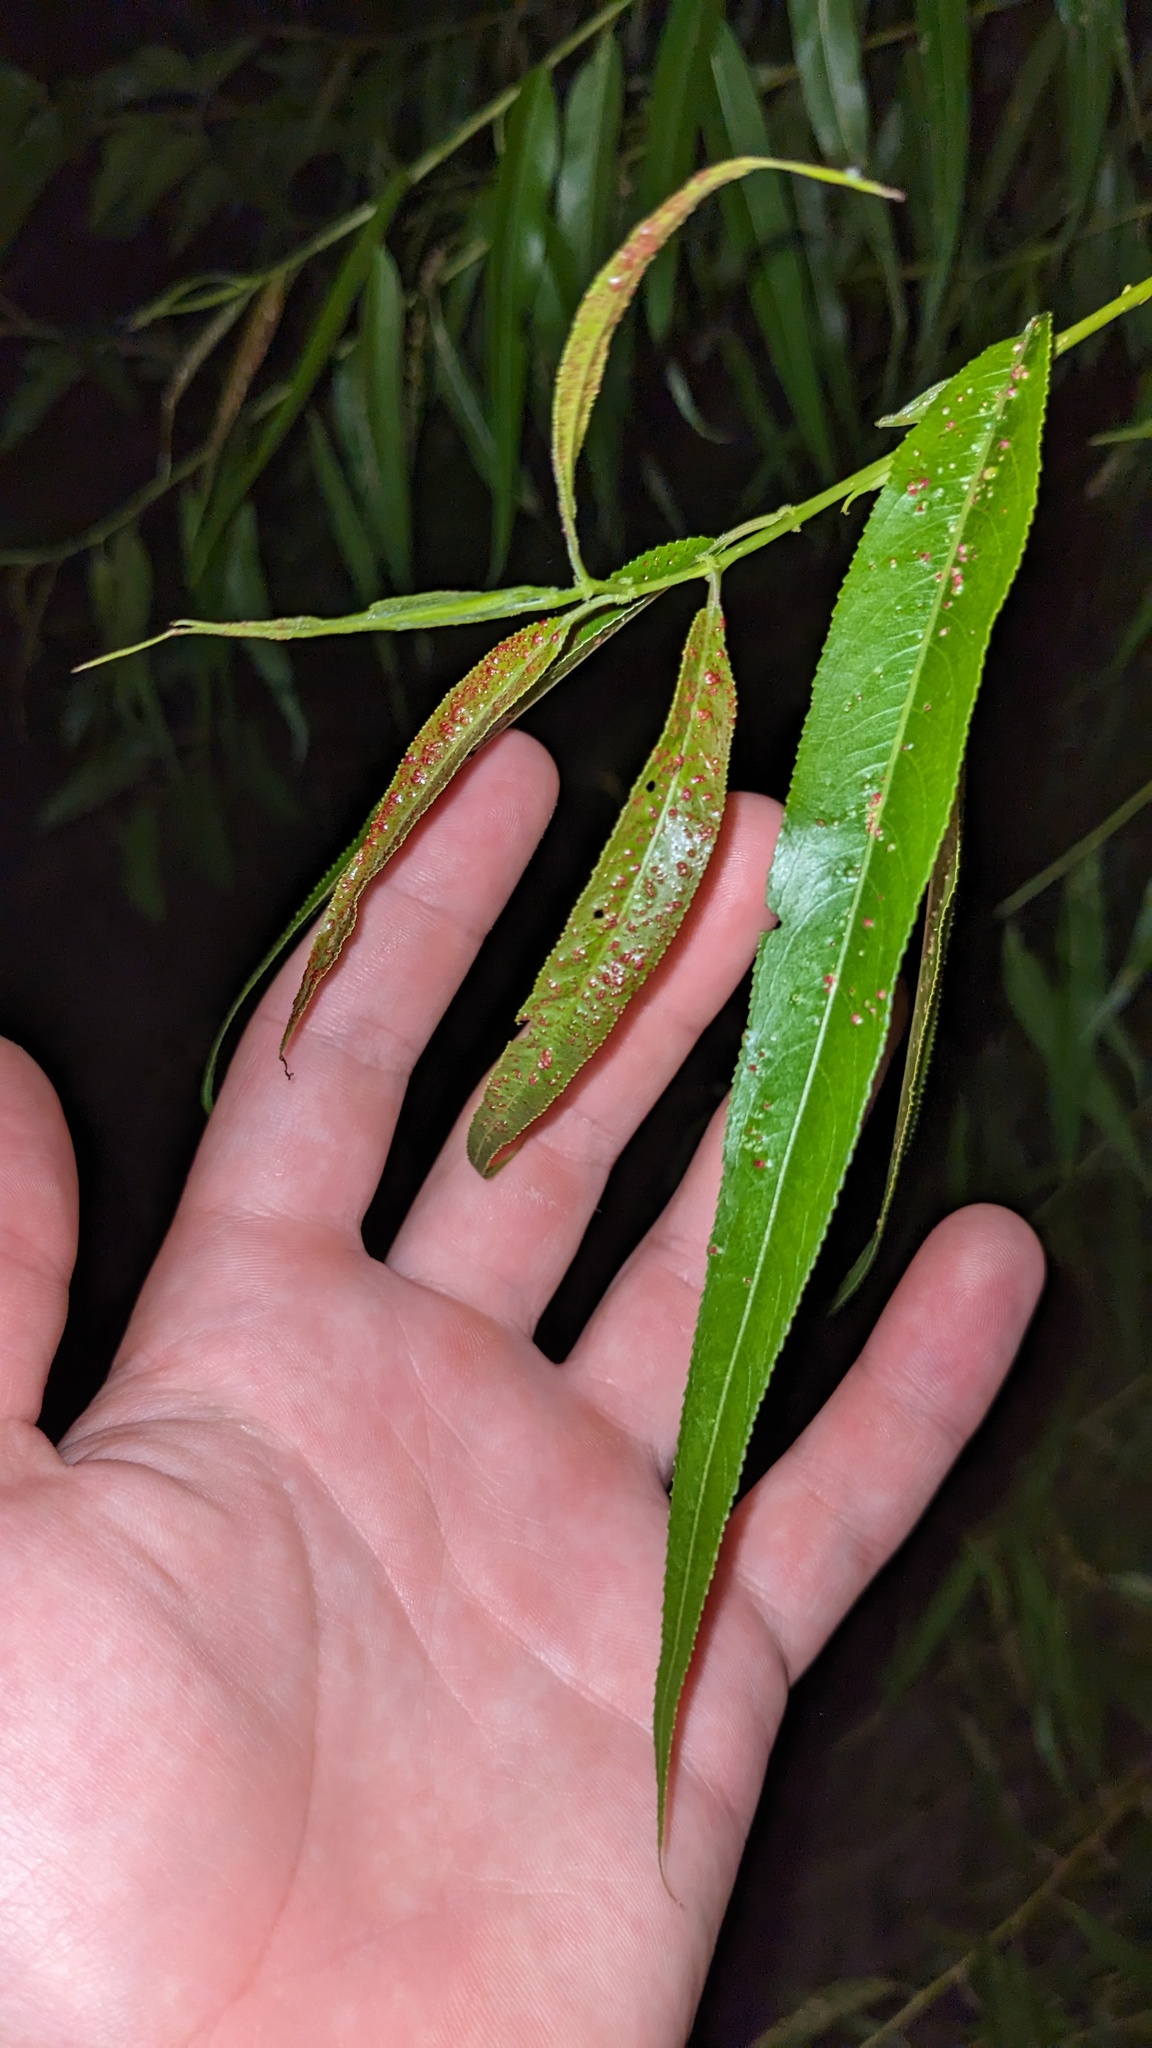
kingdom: Animalia
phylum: Arthropoda
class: Arachnida
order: Trombidiformes
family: Eriophyidae
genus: Aculus
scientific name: Aculus tetanothrix
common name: Willow bead gall mite
